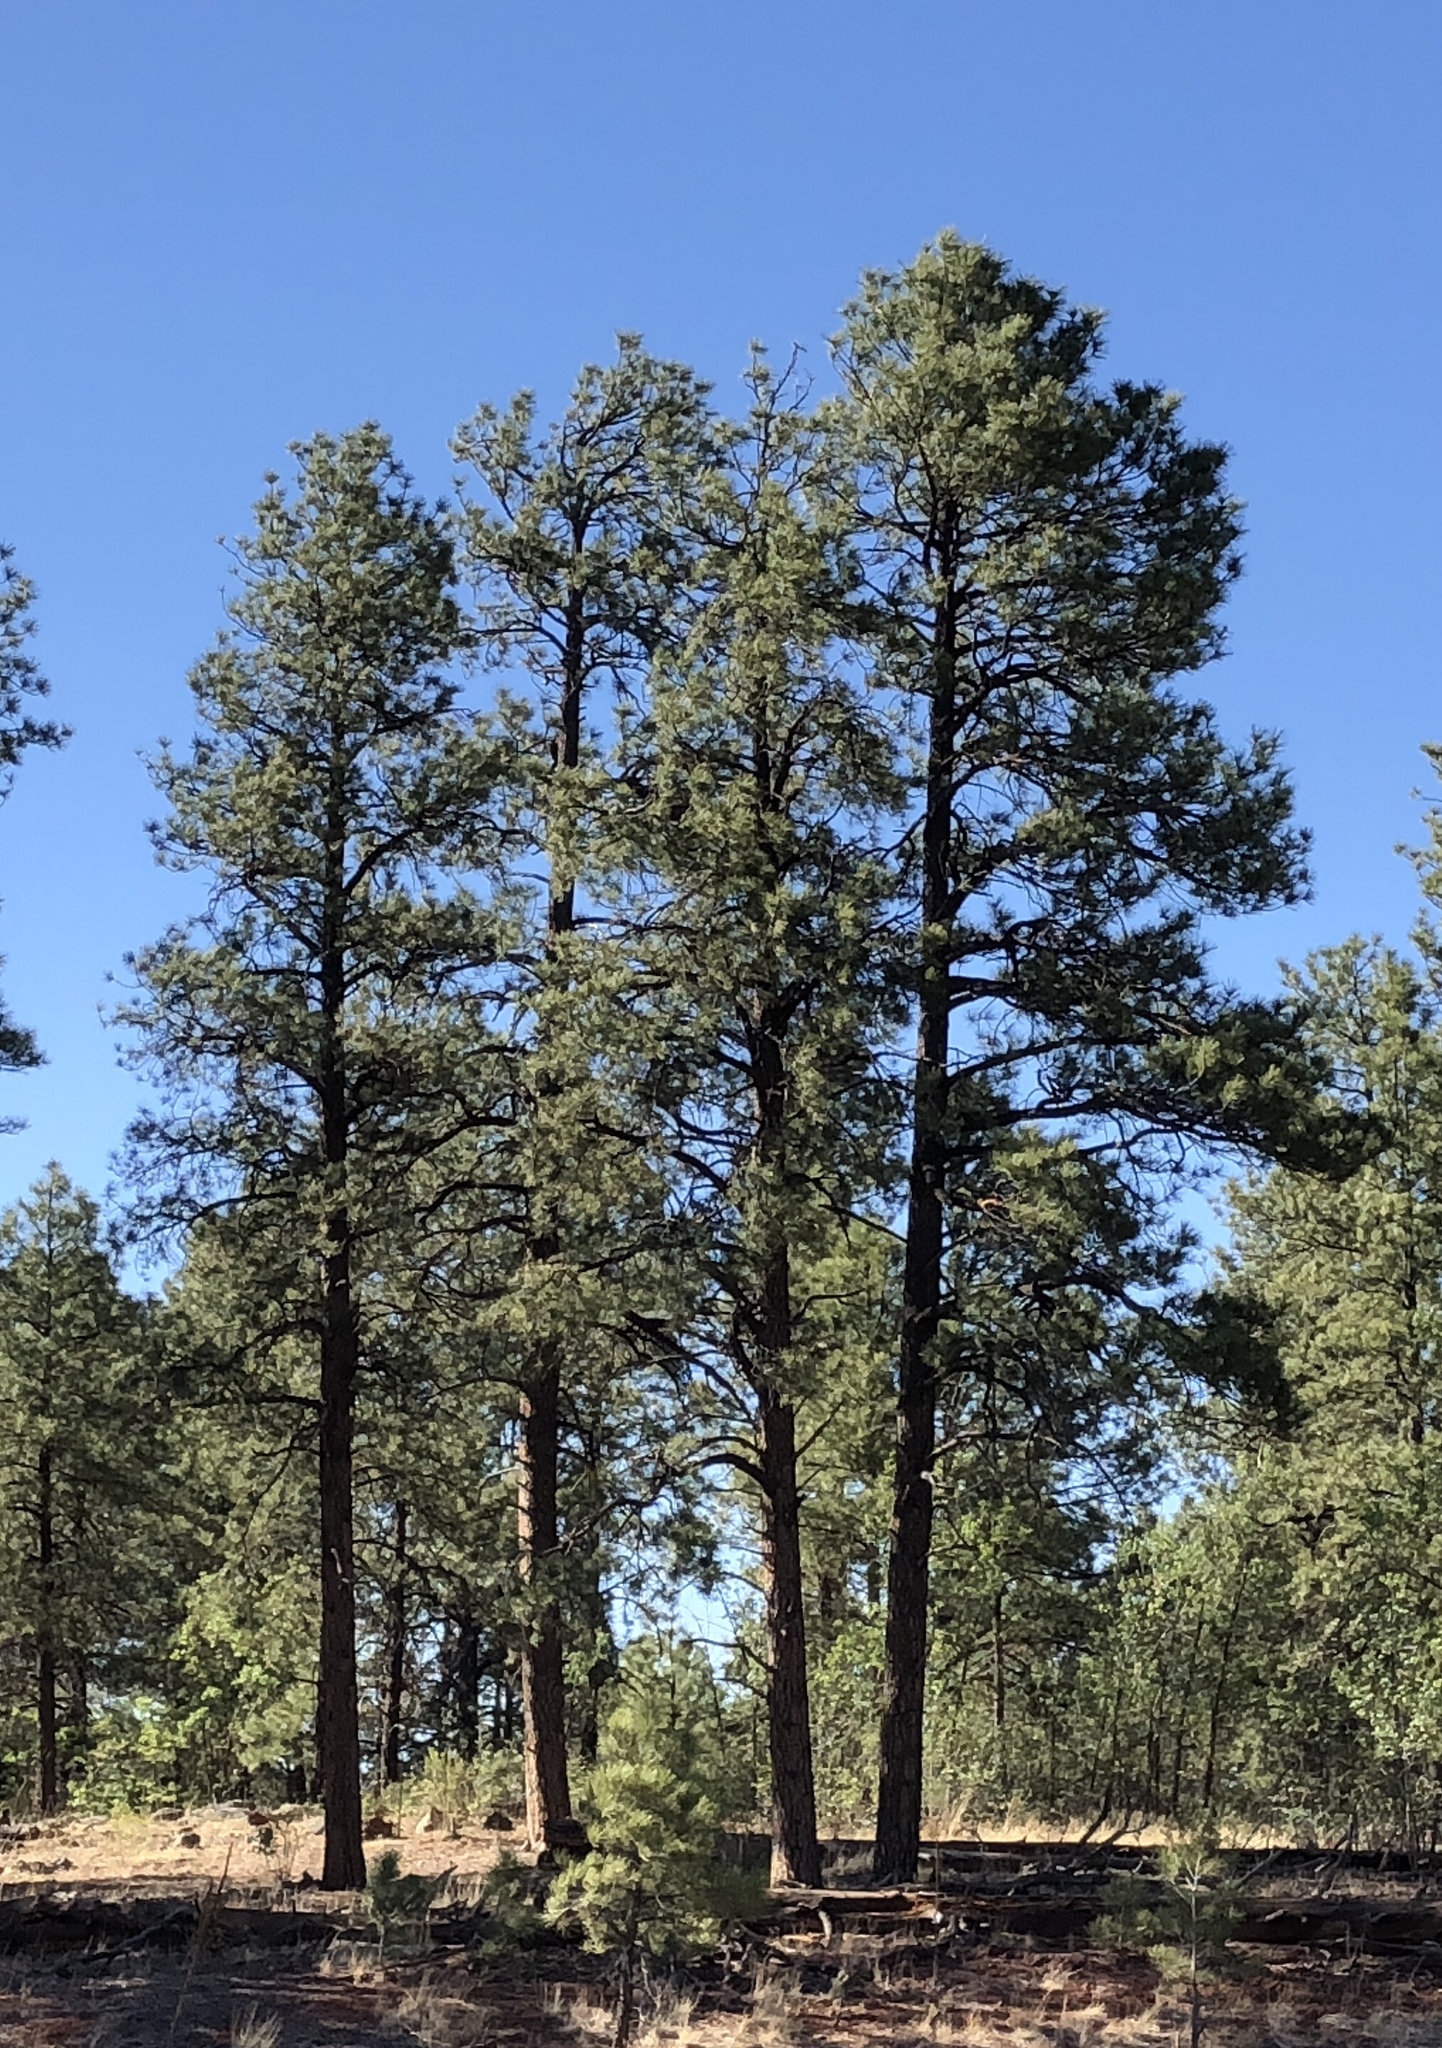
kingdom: Plantae
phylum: Tracheophyta
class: Pinopsida
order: Pinales
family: Pinaceae
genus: Pinus
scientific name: Pinus ponderosa
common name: Western yellow-pine
